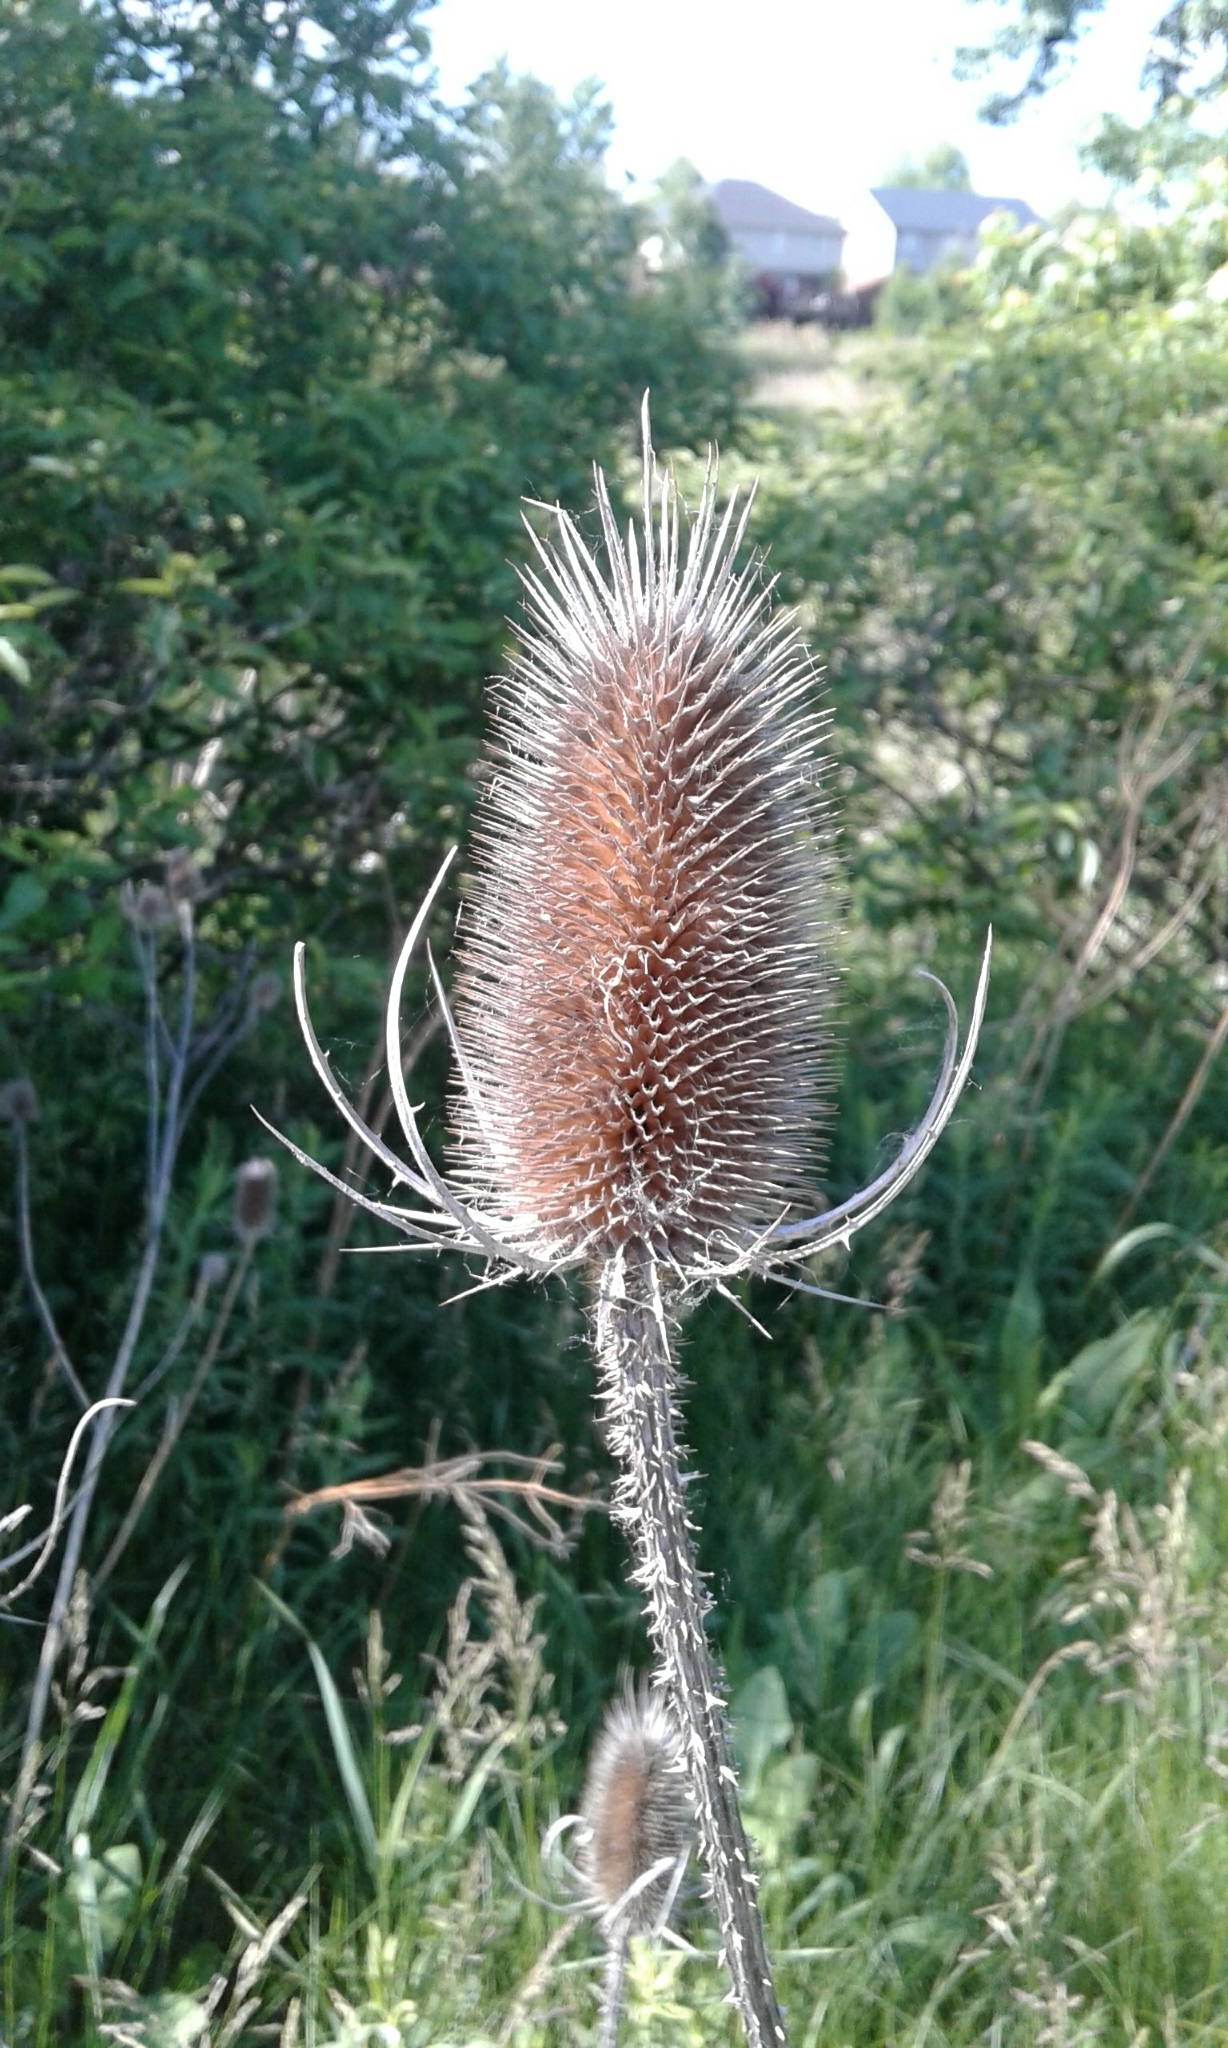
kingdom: Plantae
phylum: Tracheophyta
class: Magnoliopsida
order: Dipsacales
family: Caprifoliaceae
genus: Dipsacus
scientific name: Dipsacus fullonum
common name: Teasel
